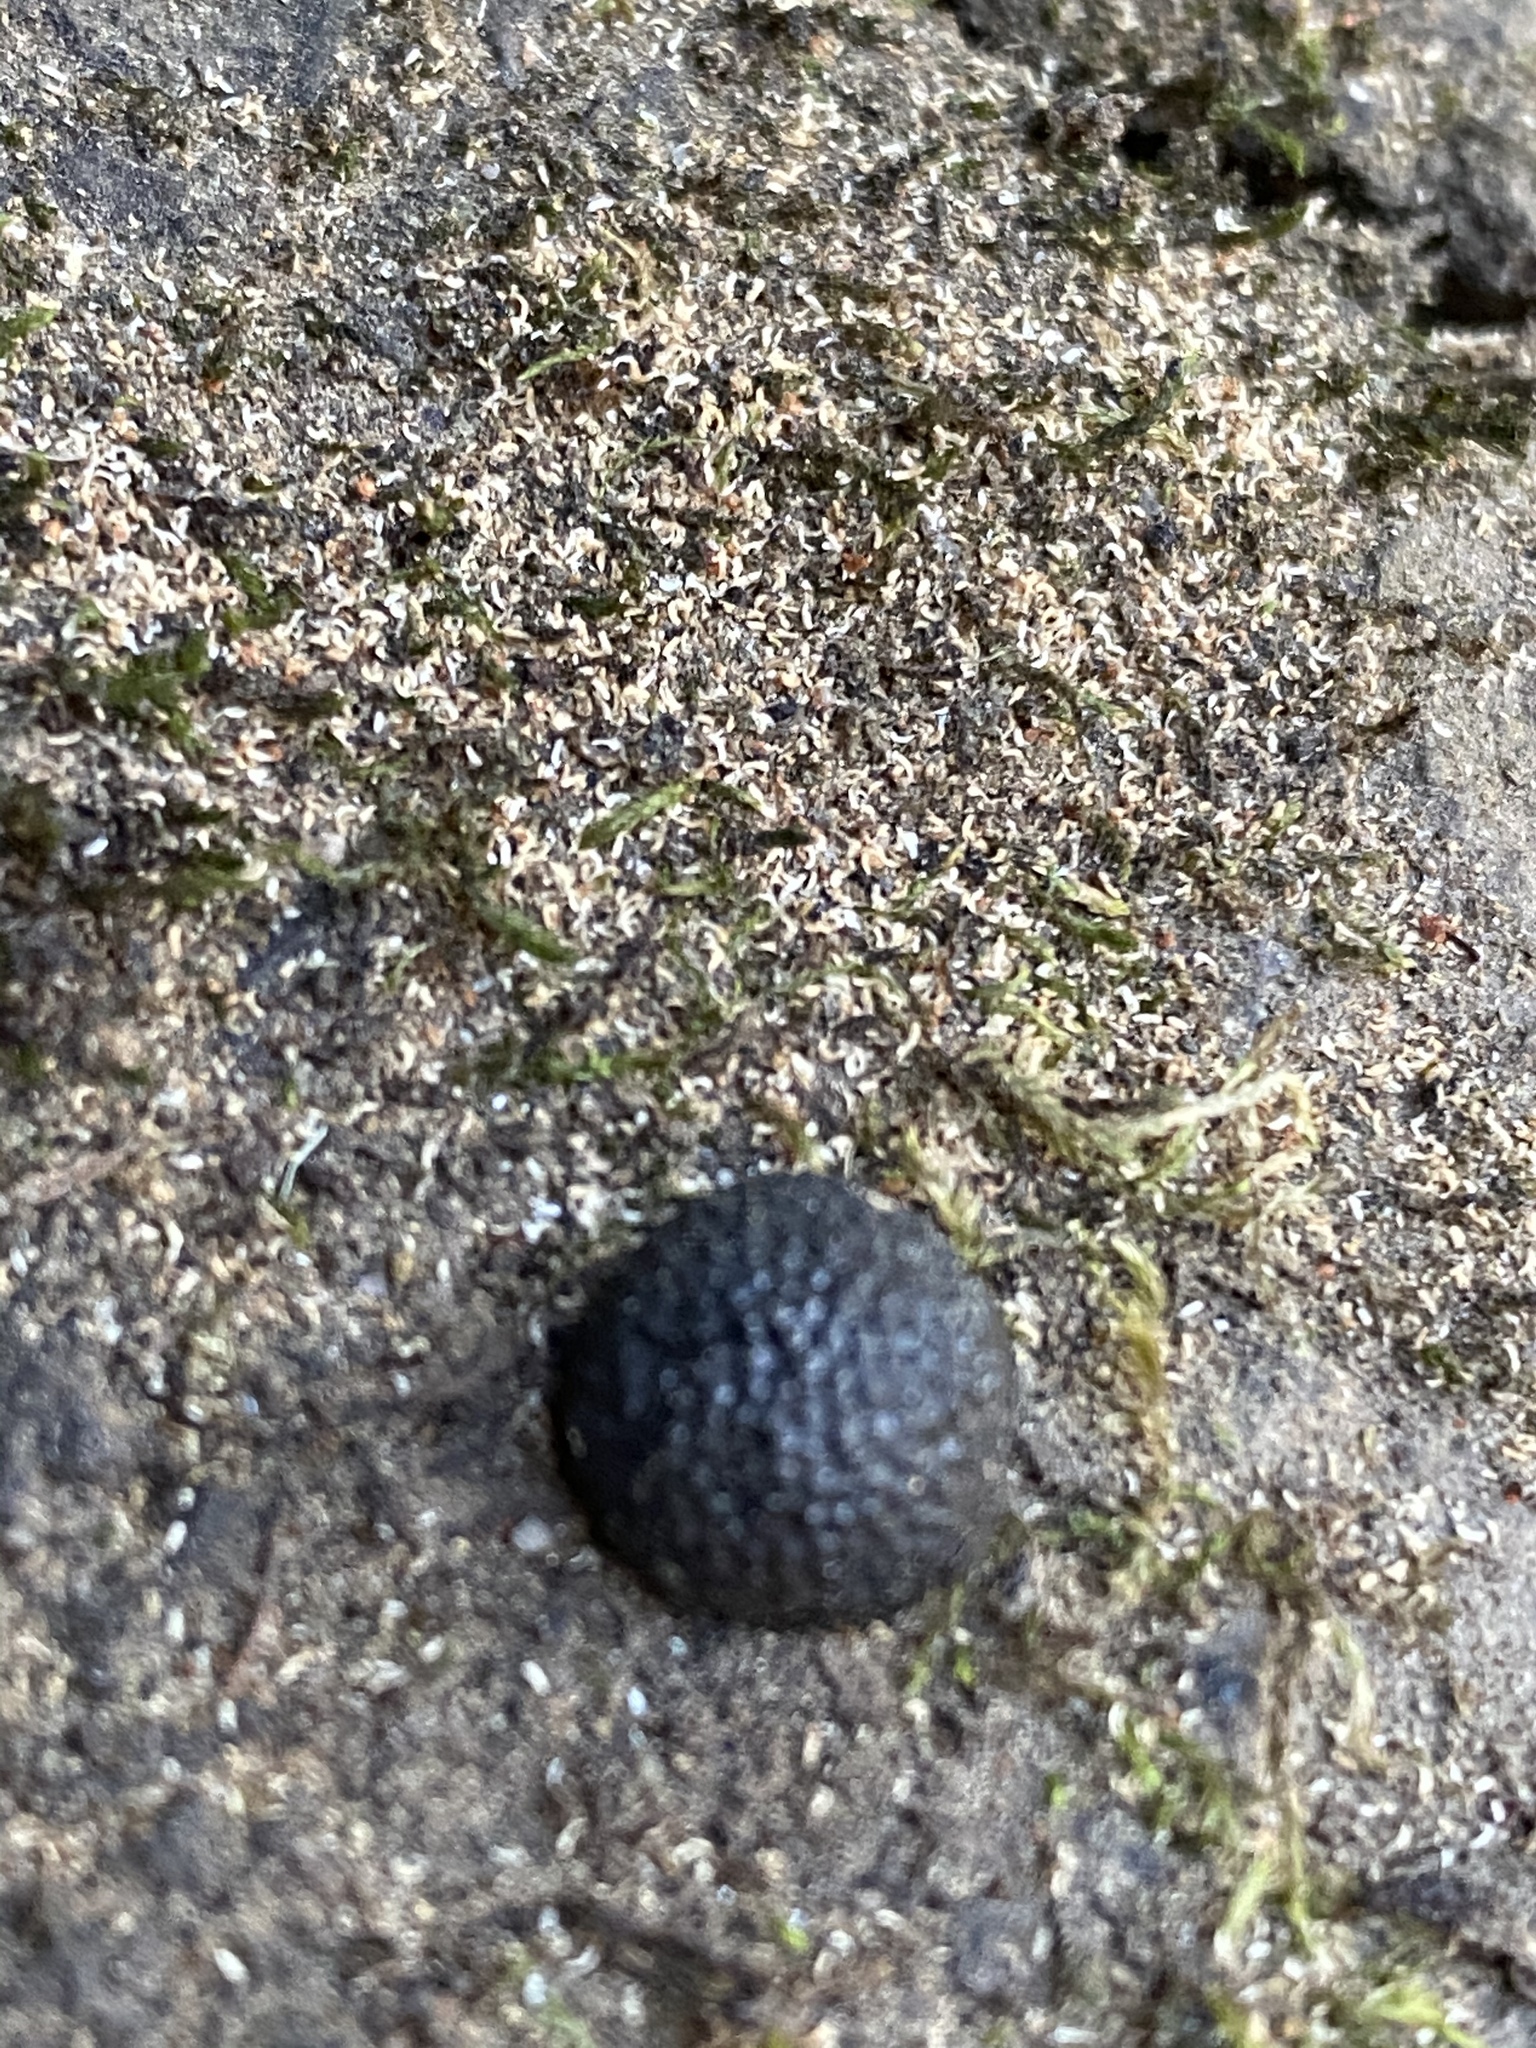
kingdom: Fungi
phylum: Ascomycota
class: Sordariomycetes
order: Xylariales
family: Hypoxylaceae
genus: Annulohypoxylon
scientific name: Annulohypoxylon thouarsianum
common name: Cramp balls
